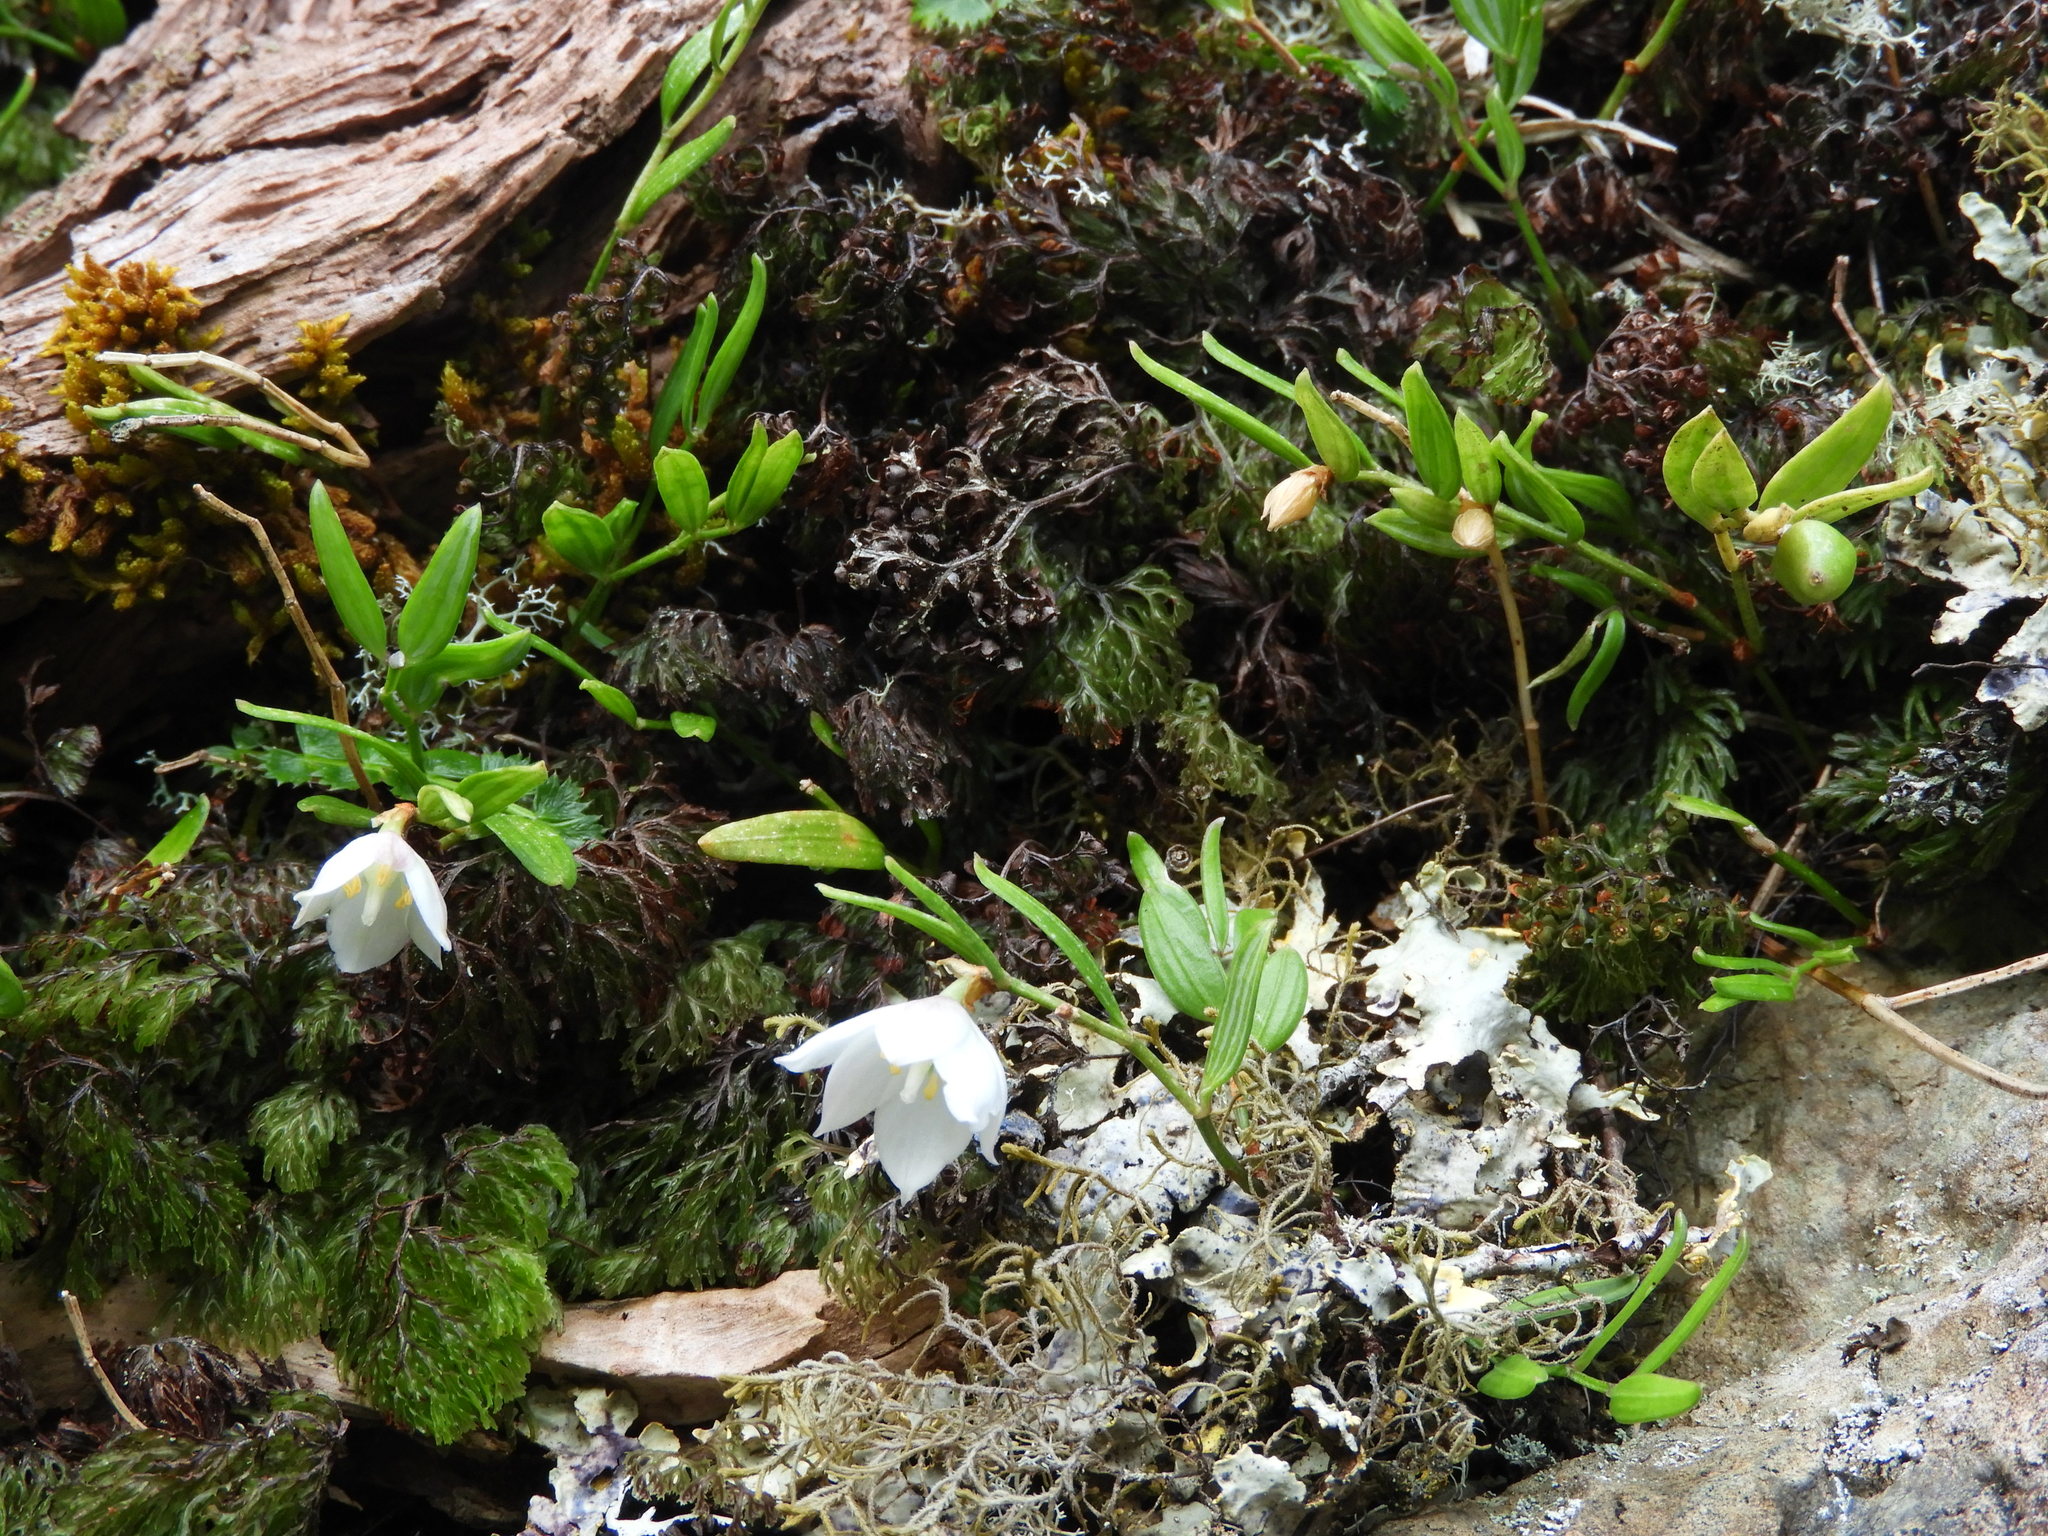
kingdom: Plantae
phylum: Tracheophyta
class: Liliopsida
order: Liliales
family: Alstroemeriaceae
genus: Luzuriaga
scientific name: Luzuriaga parviflora
